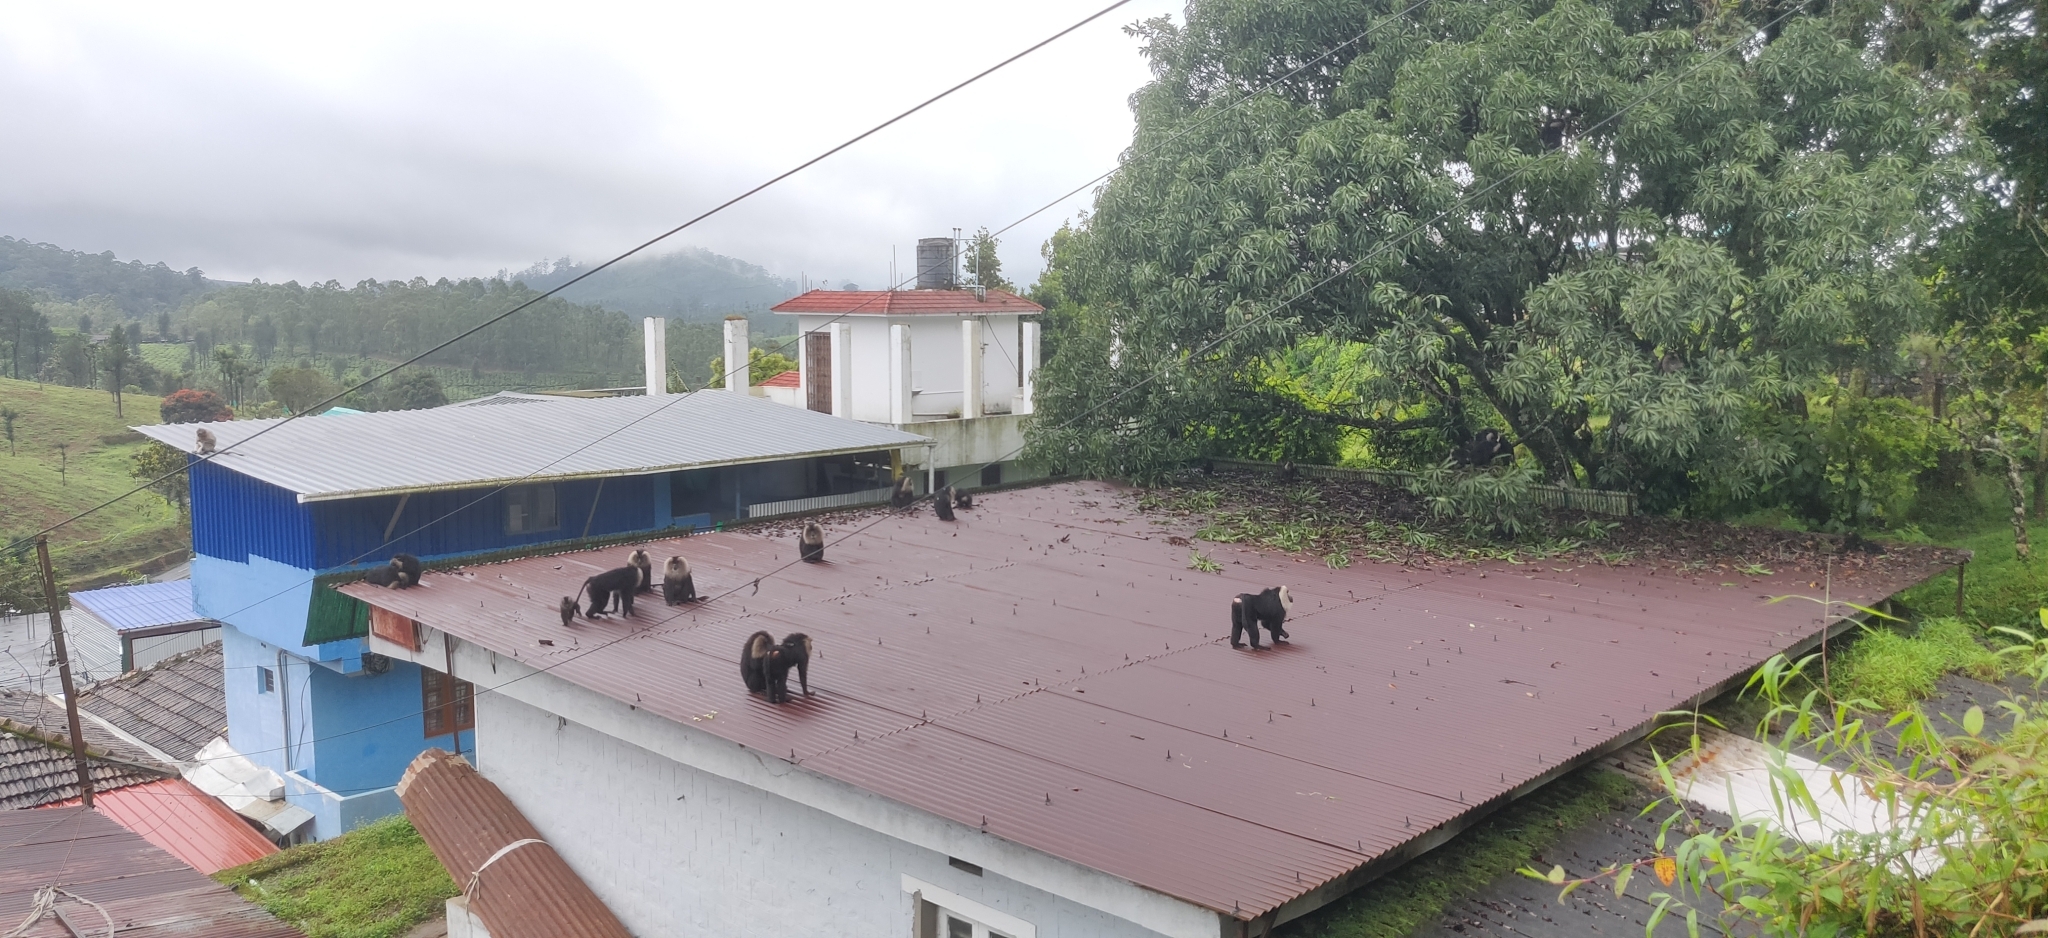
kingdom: Animalia
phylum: Chordata
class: Mammalia
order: Primates
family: Cercopithecidae
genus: Macaca
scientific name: Macaca silenus
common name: Lion-tailed macaque
